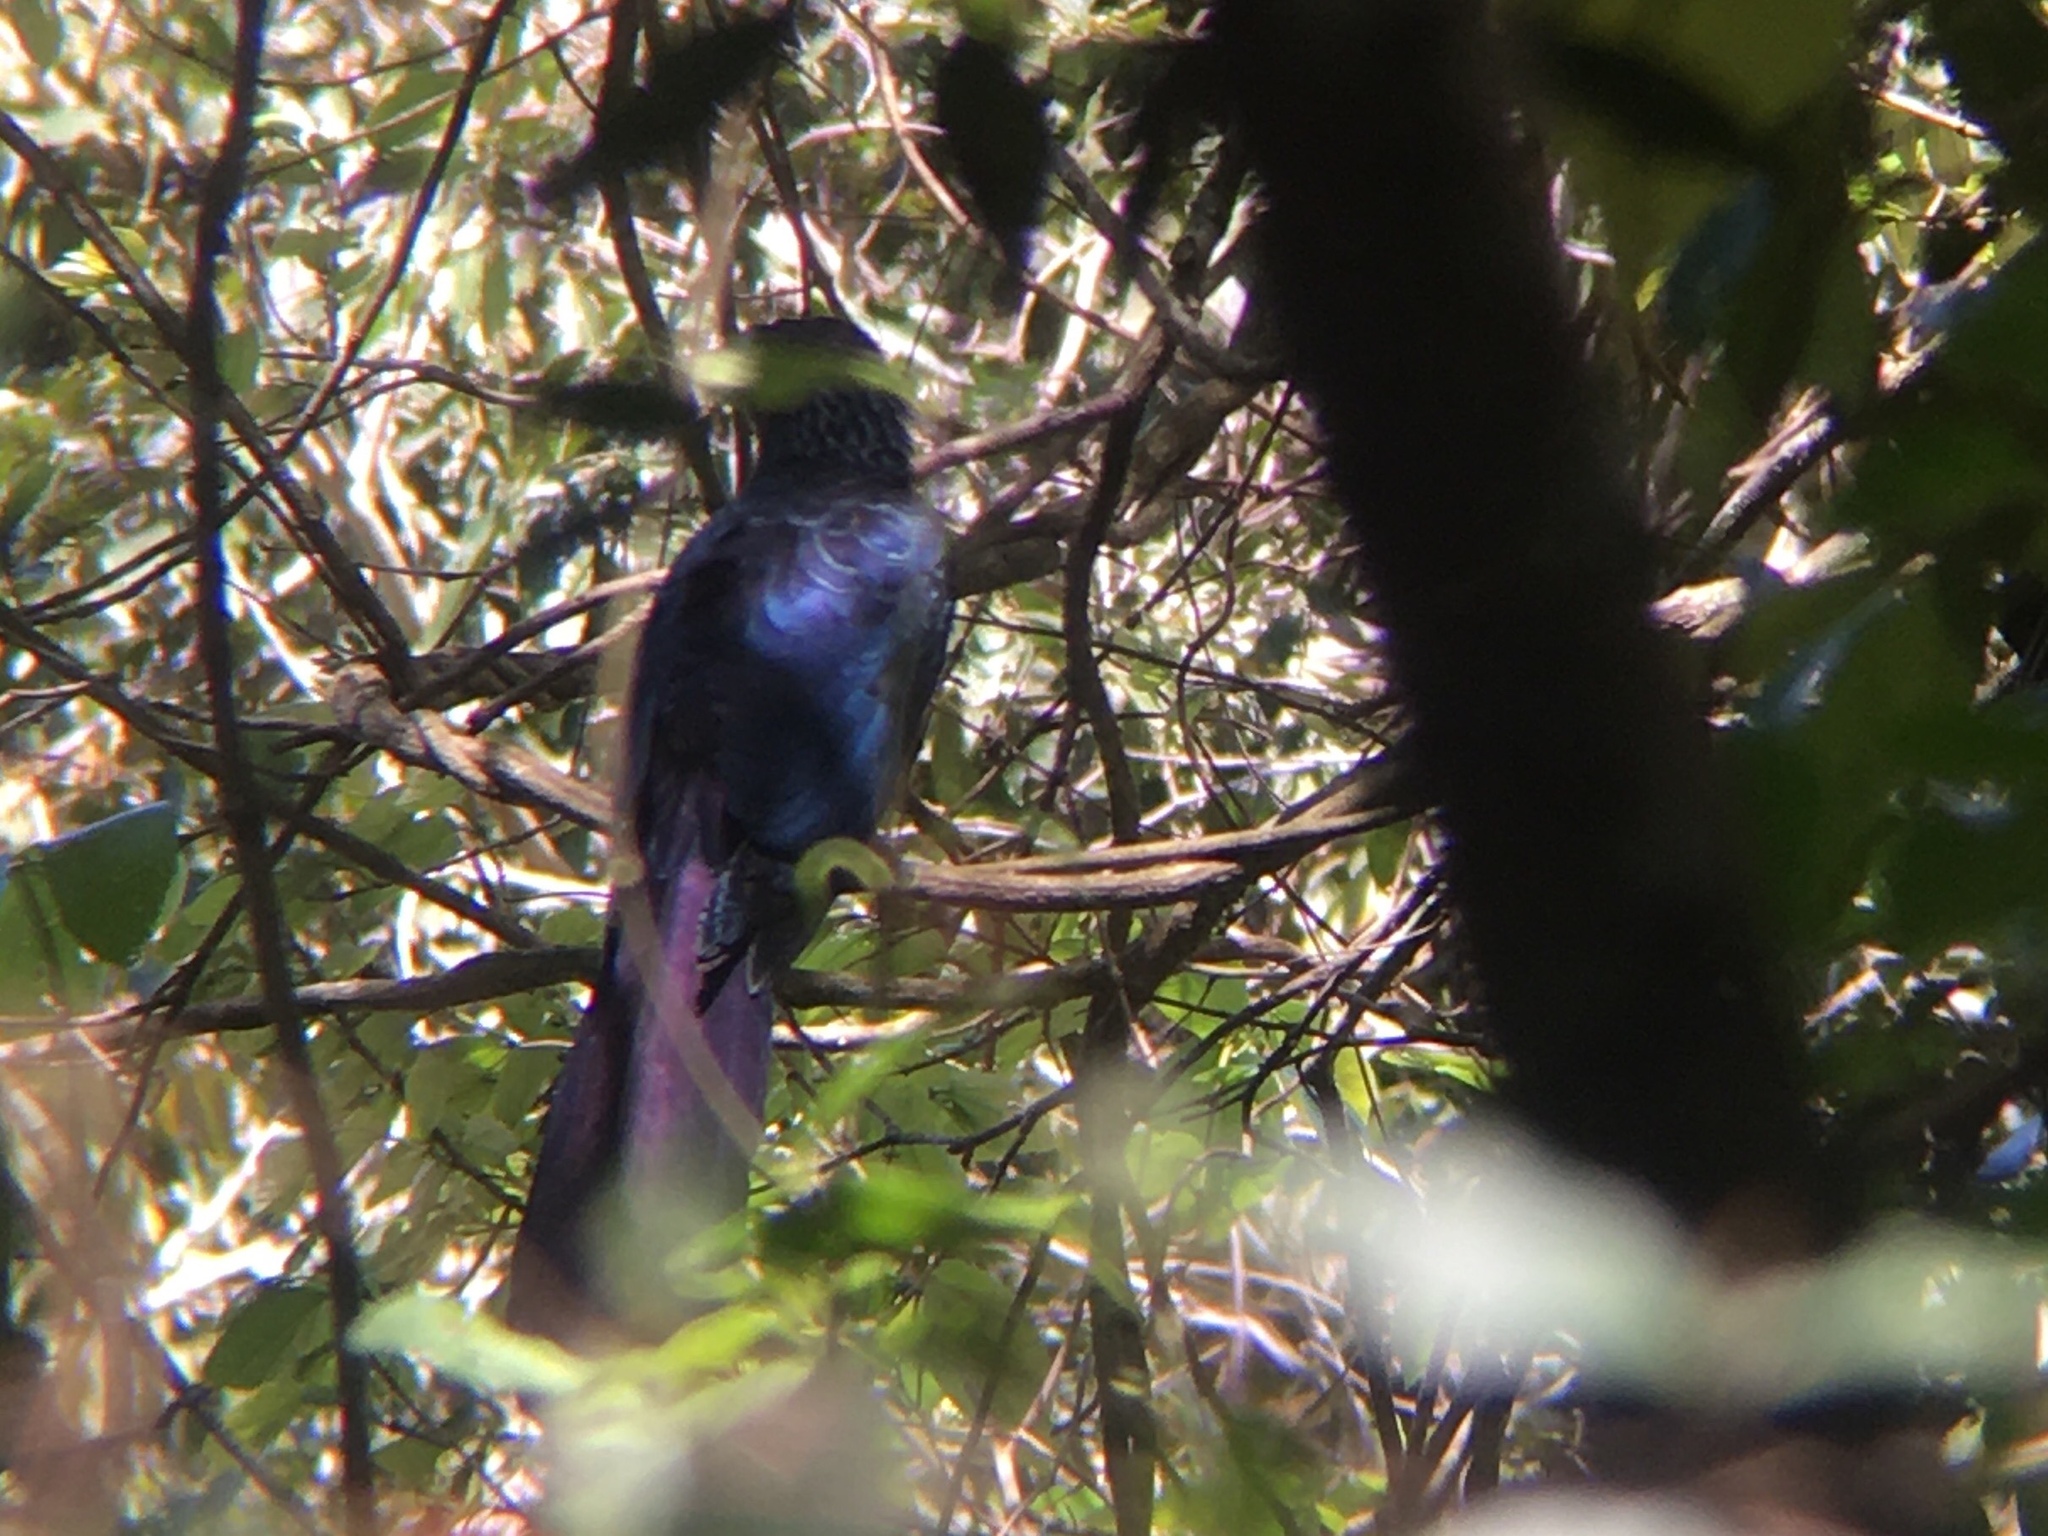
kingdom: Animalia
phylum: Chordata
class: Aves
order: Cuculiformes
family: Cuculidae
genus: Crotophaga
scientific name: Crotophaga major
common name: Greater ani
